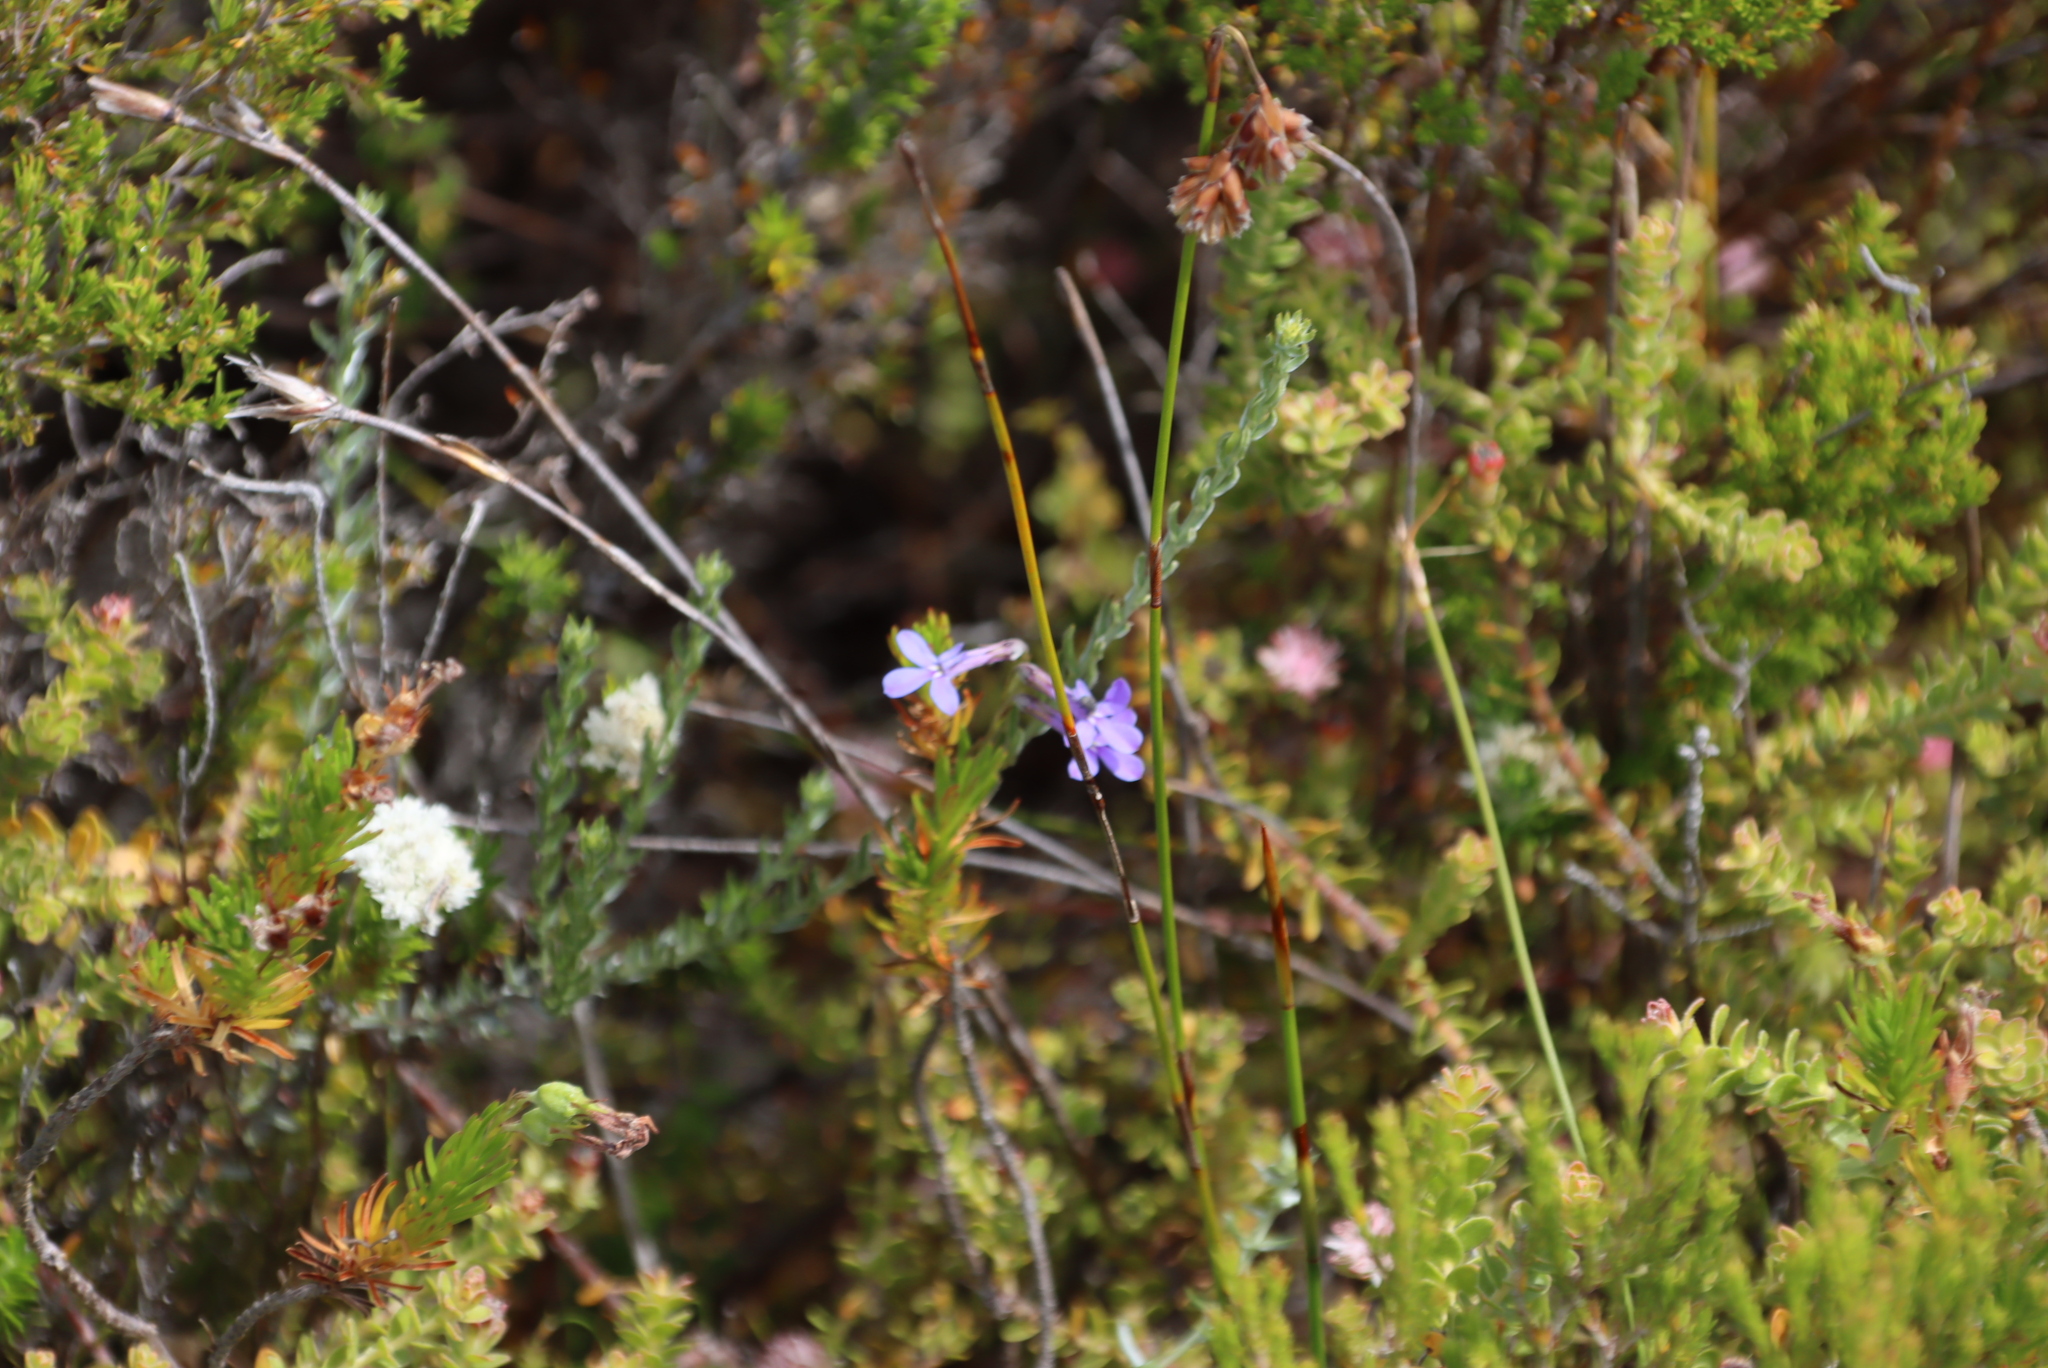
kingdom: Plantae
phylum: Tracheophyta
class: Magnoliopsida
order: Asterales
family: Campanulaceae
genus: Lobelia
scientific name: Lobelia pinifolia
